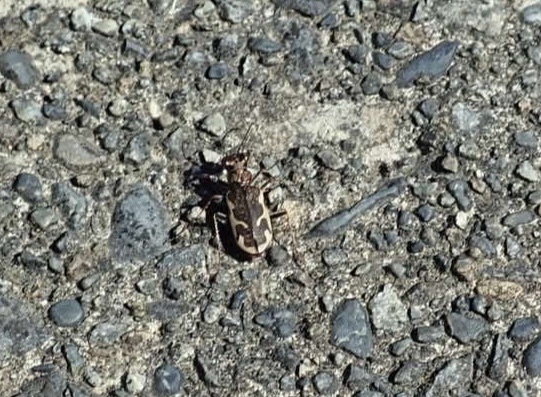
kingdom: Animalia
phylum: Arthropoda
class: Insecta
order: Coleoptera
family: Carabidae
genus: Neocicindela
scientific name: Neocicindela tuberculata
